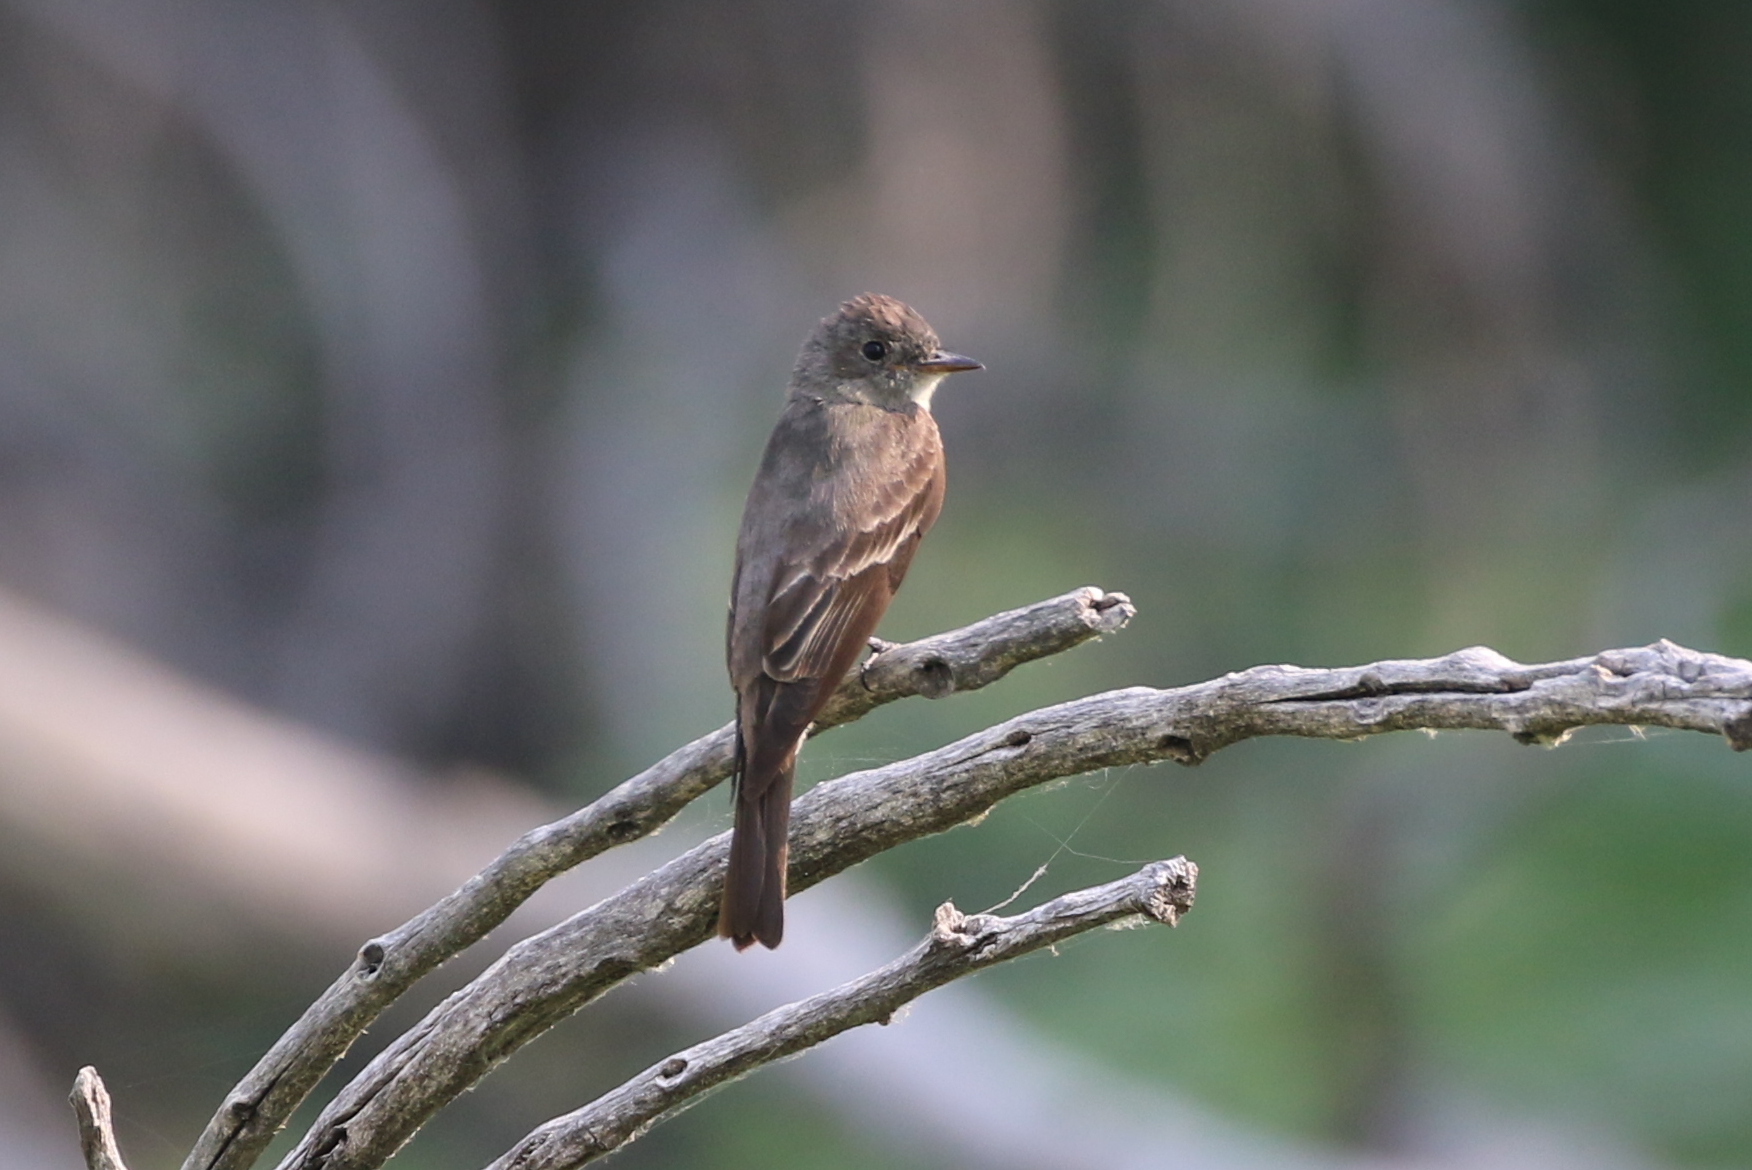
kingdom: Animalia
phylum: Chordata
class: Aves
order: Passeriformes
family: Tyrannidae
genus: Contopus
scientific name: Contopus sordidulus
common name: Western wood-pewee
